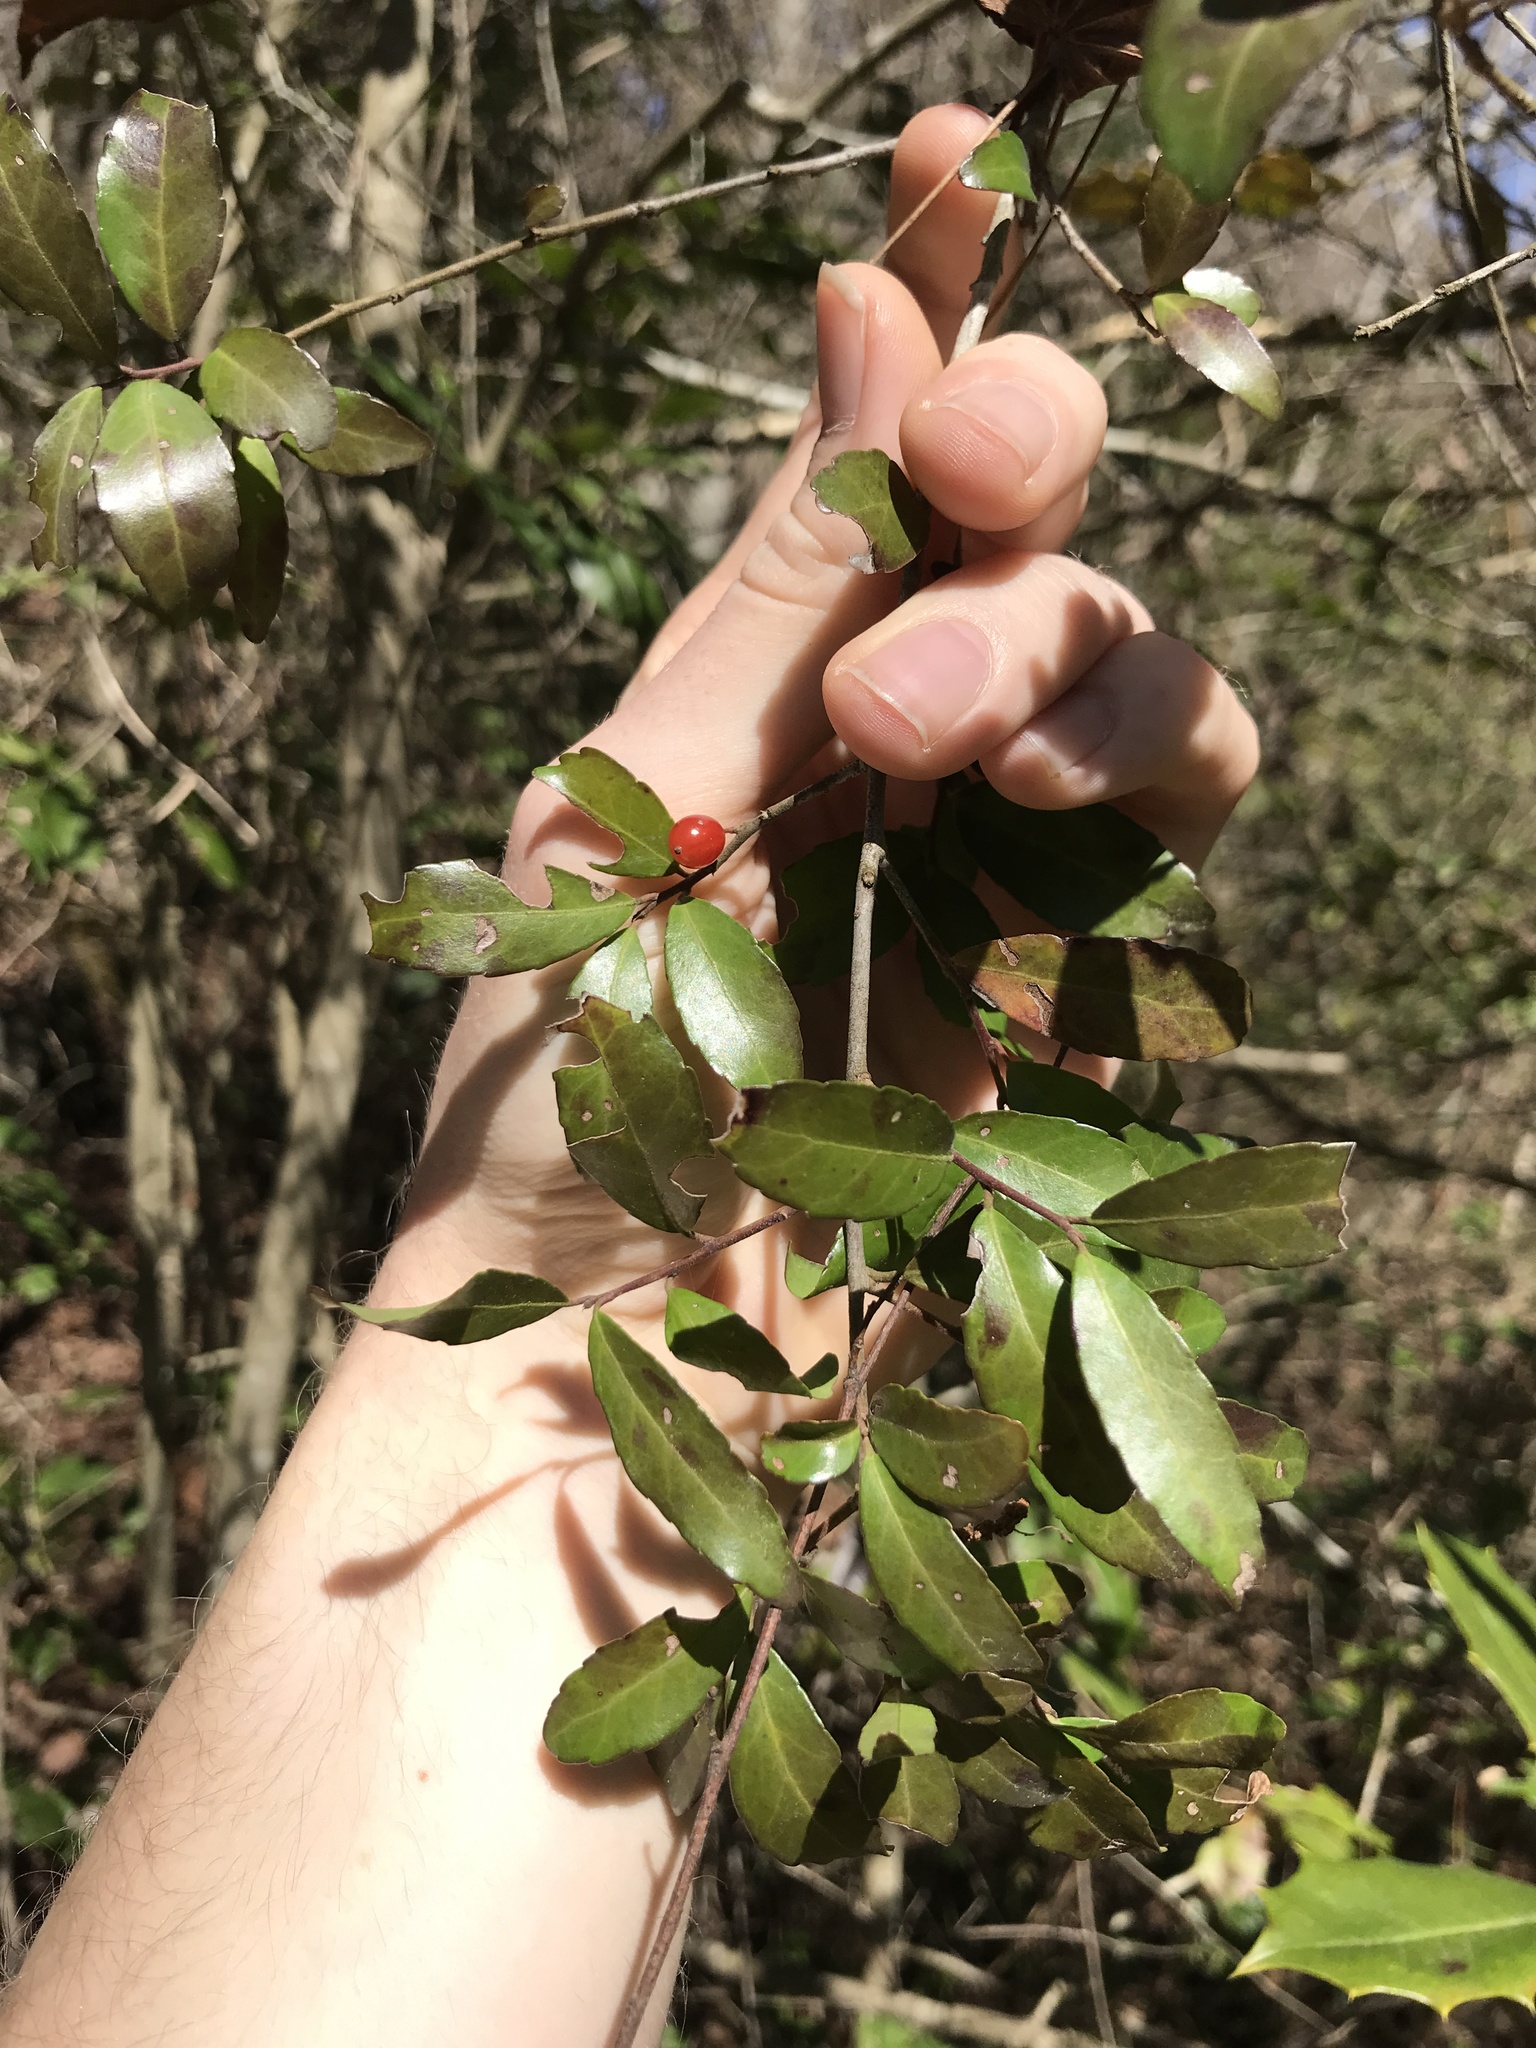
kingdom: Plantae
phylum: Tracheophyta
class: Magnoliopsida
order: Aquifoliales
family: Aquifoliaceae
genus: Ilex
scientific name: Ilex vomitoria
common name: Yaupon holly
